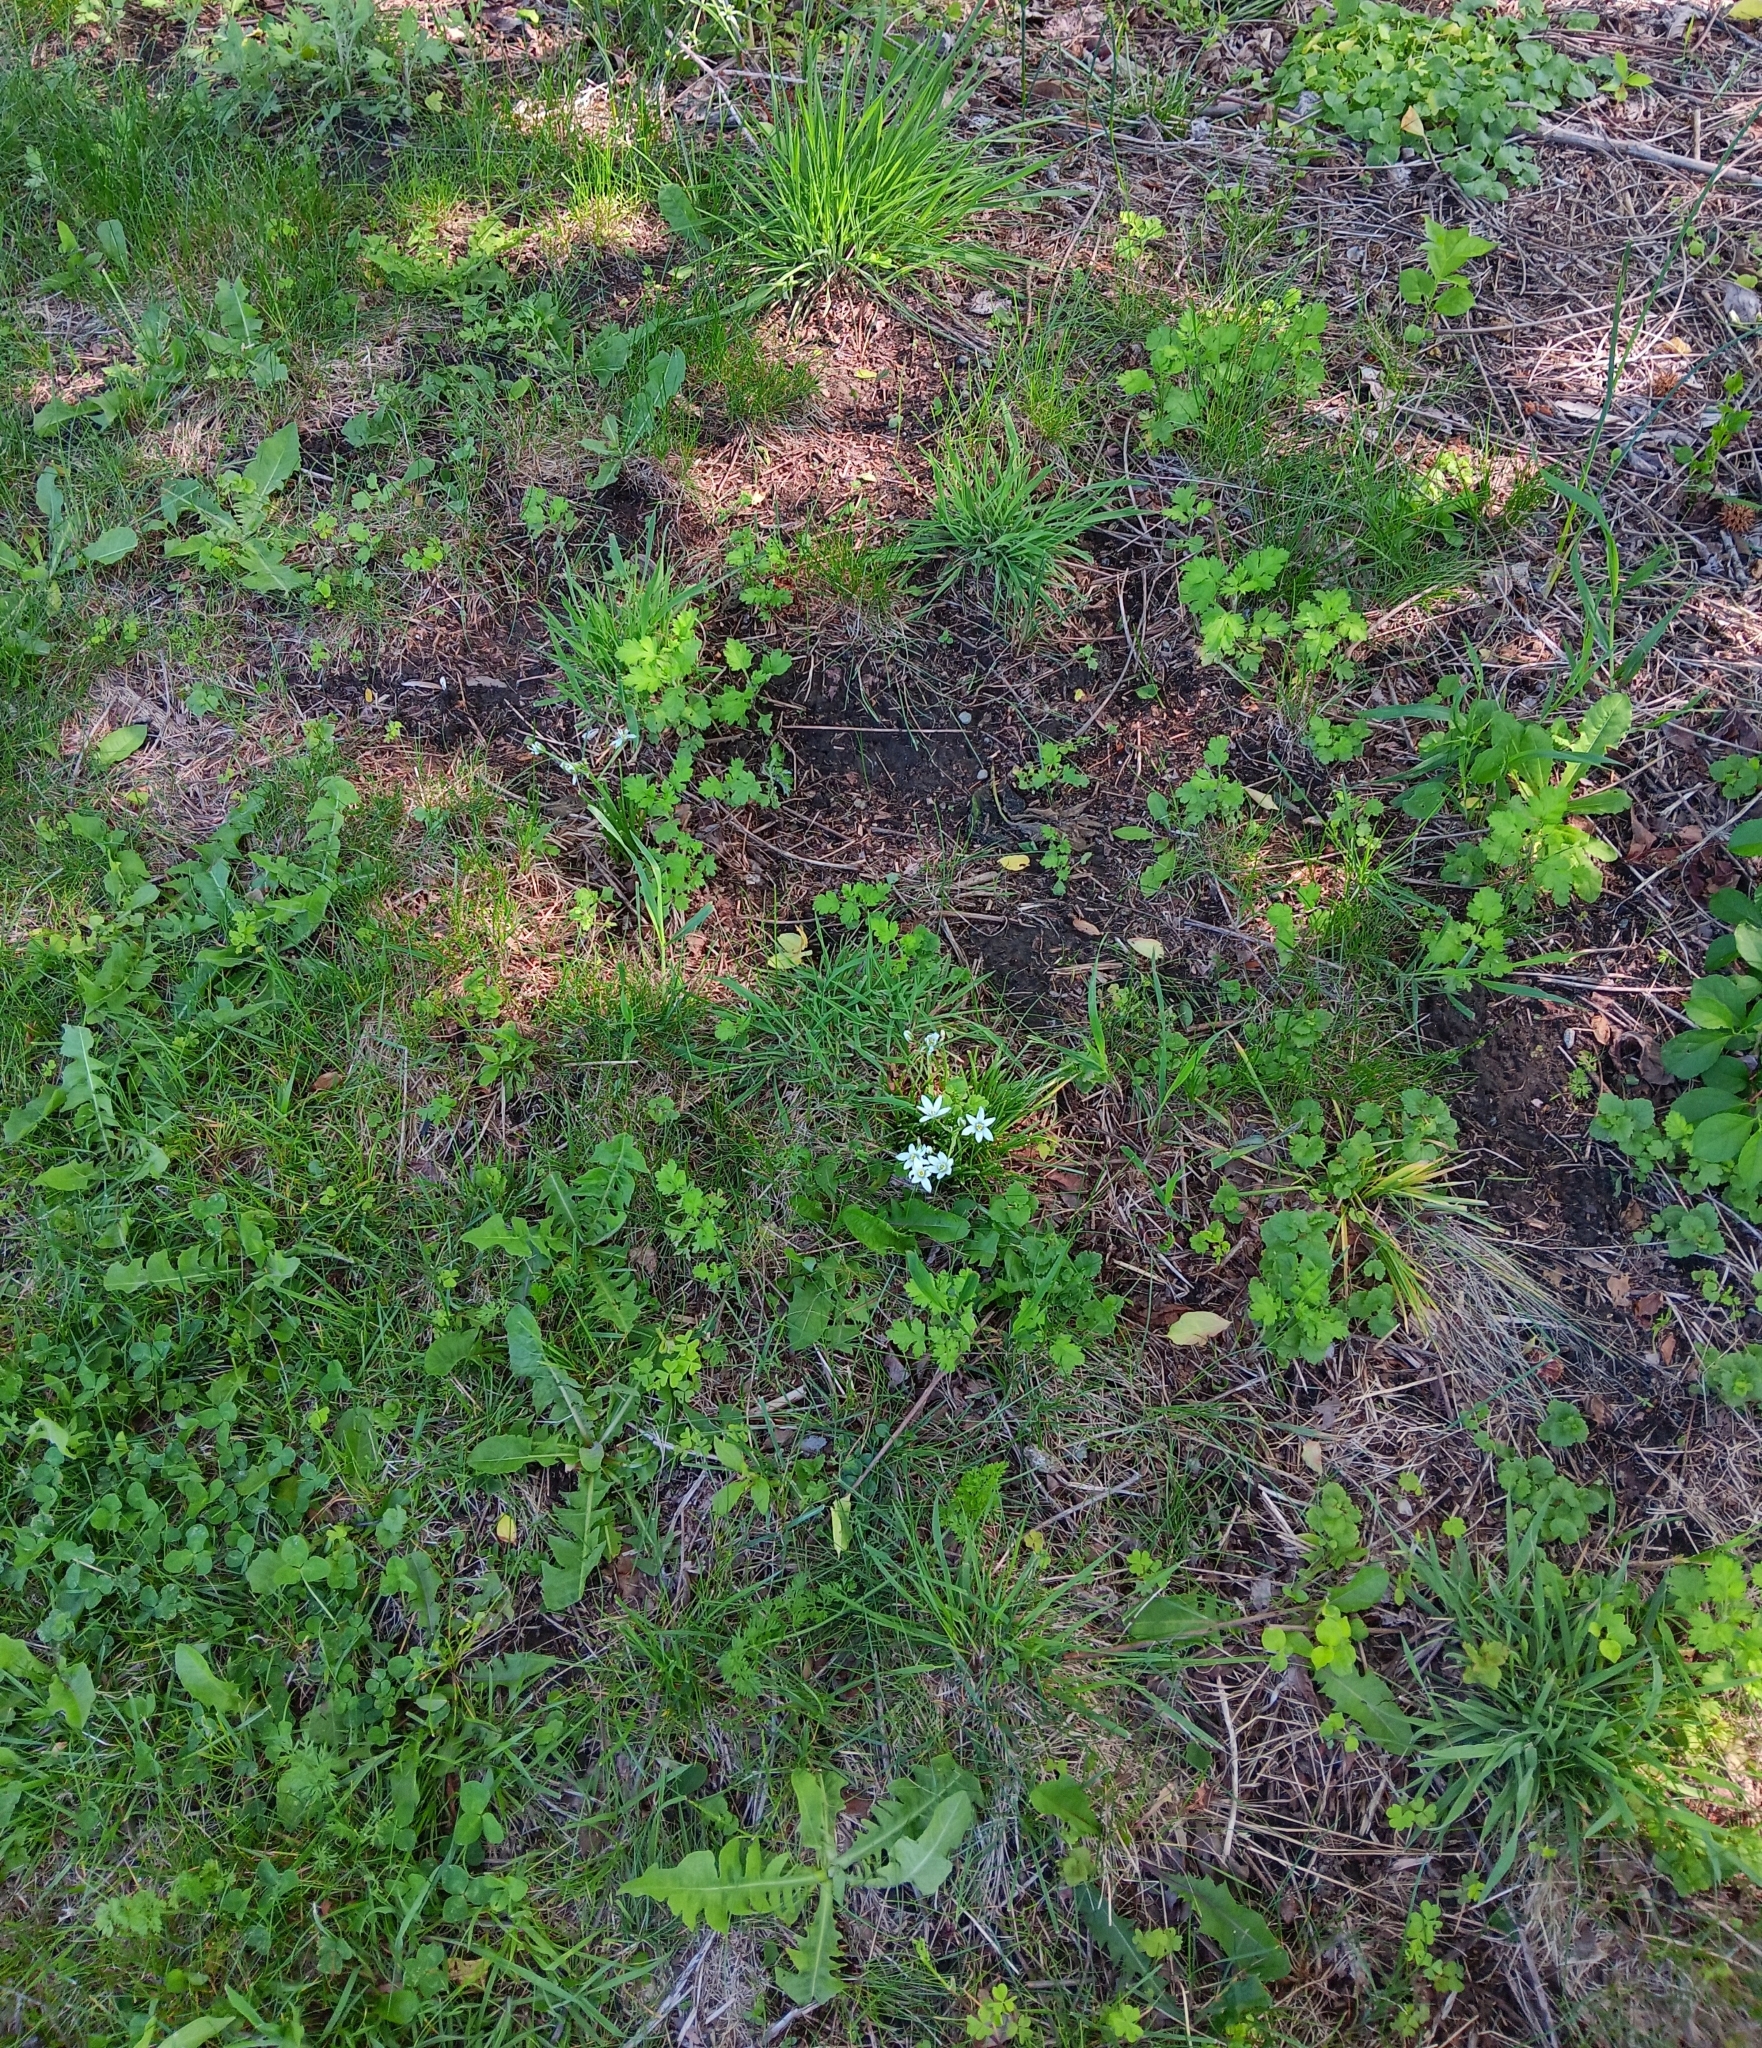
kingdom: Plantae
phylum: Tracheophyta
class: Liliopsida
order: Asparagales
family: Asparagaceae
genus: Ornithogalum
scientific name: Ornithogalum umbellatum
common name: Garden star-of-bethlehem
